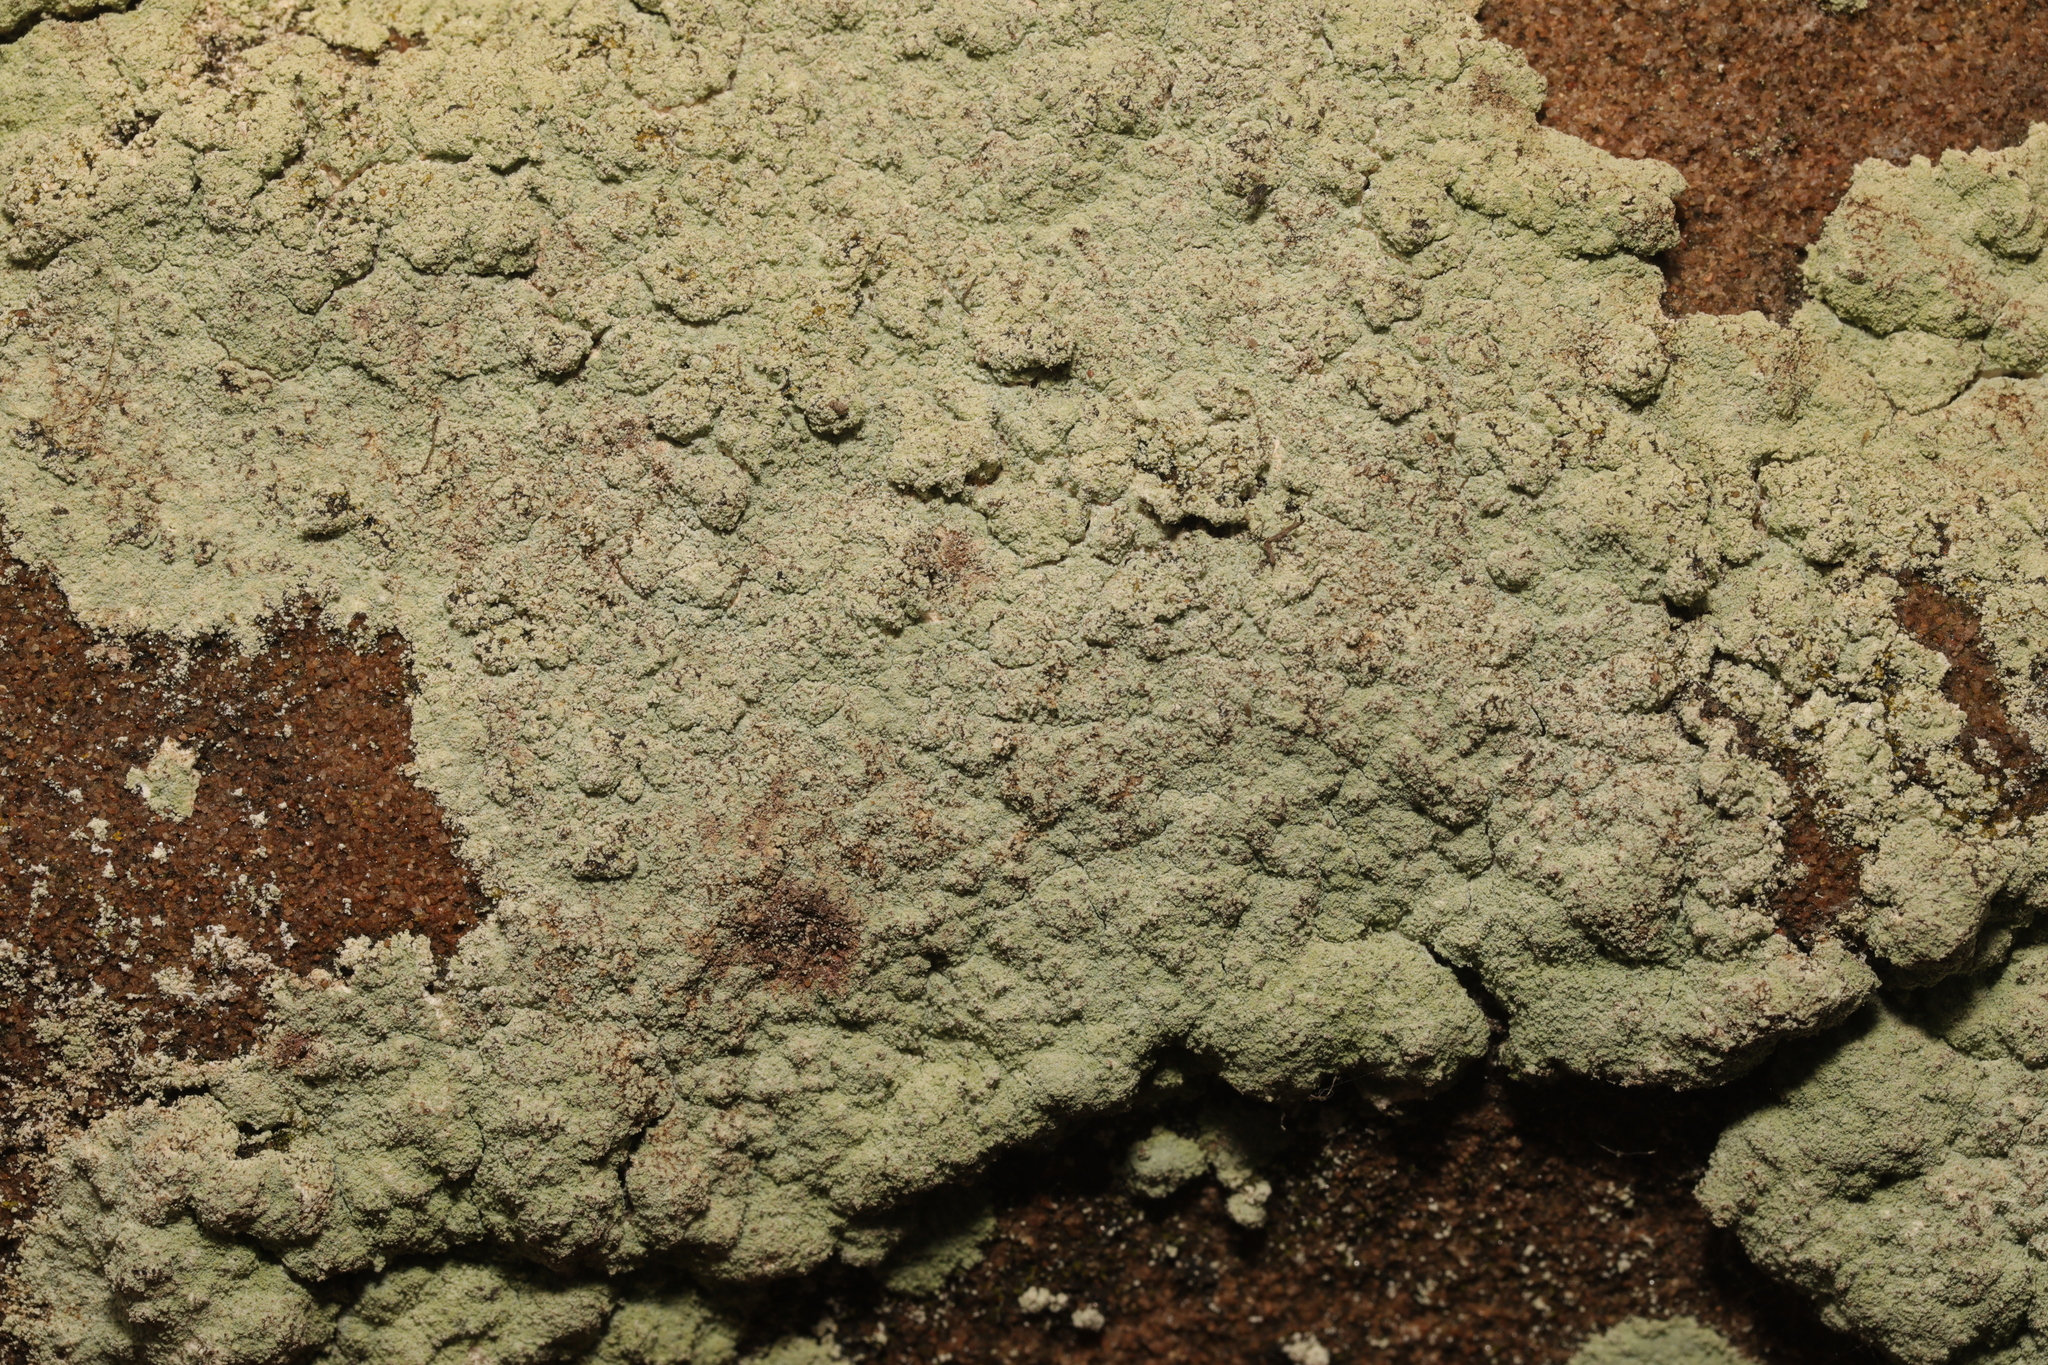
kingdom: Fungi
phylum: Ascomycota
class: Lecanoromycetes
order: Lecanorales
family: Stereocaulaceae
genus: Lepraria
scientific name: Lepraria
